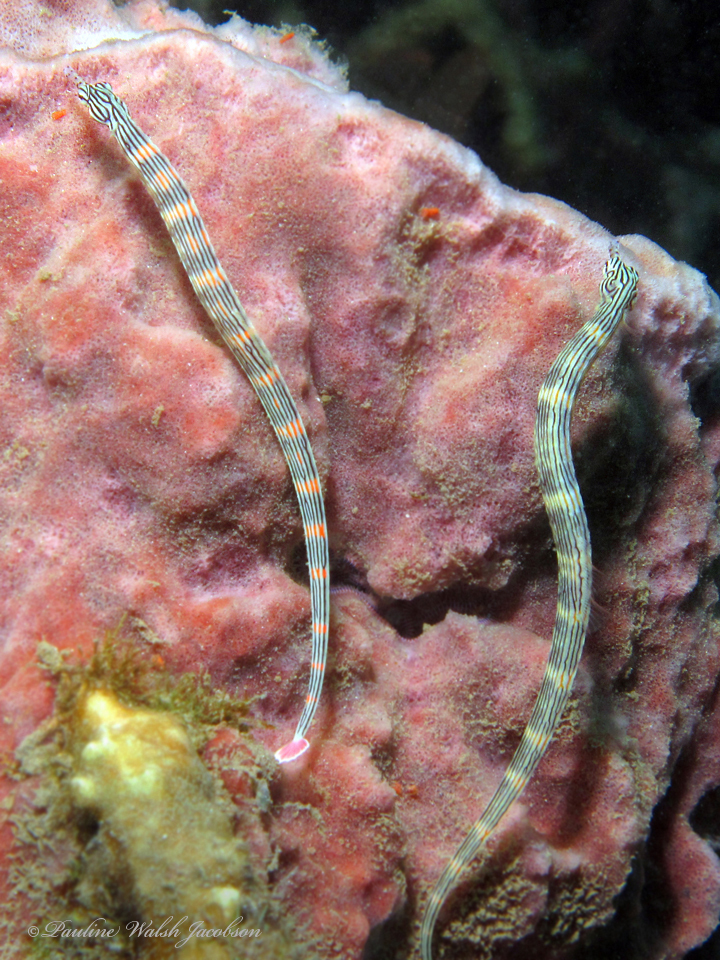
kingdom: Animalia
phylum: Chordata
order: Syngnathiformes
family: Syngnathidae
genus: Corythoichthys
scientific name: Corythoichthys haematopterus
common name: Bloodspot pipefish
